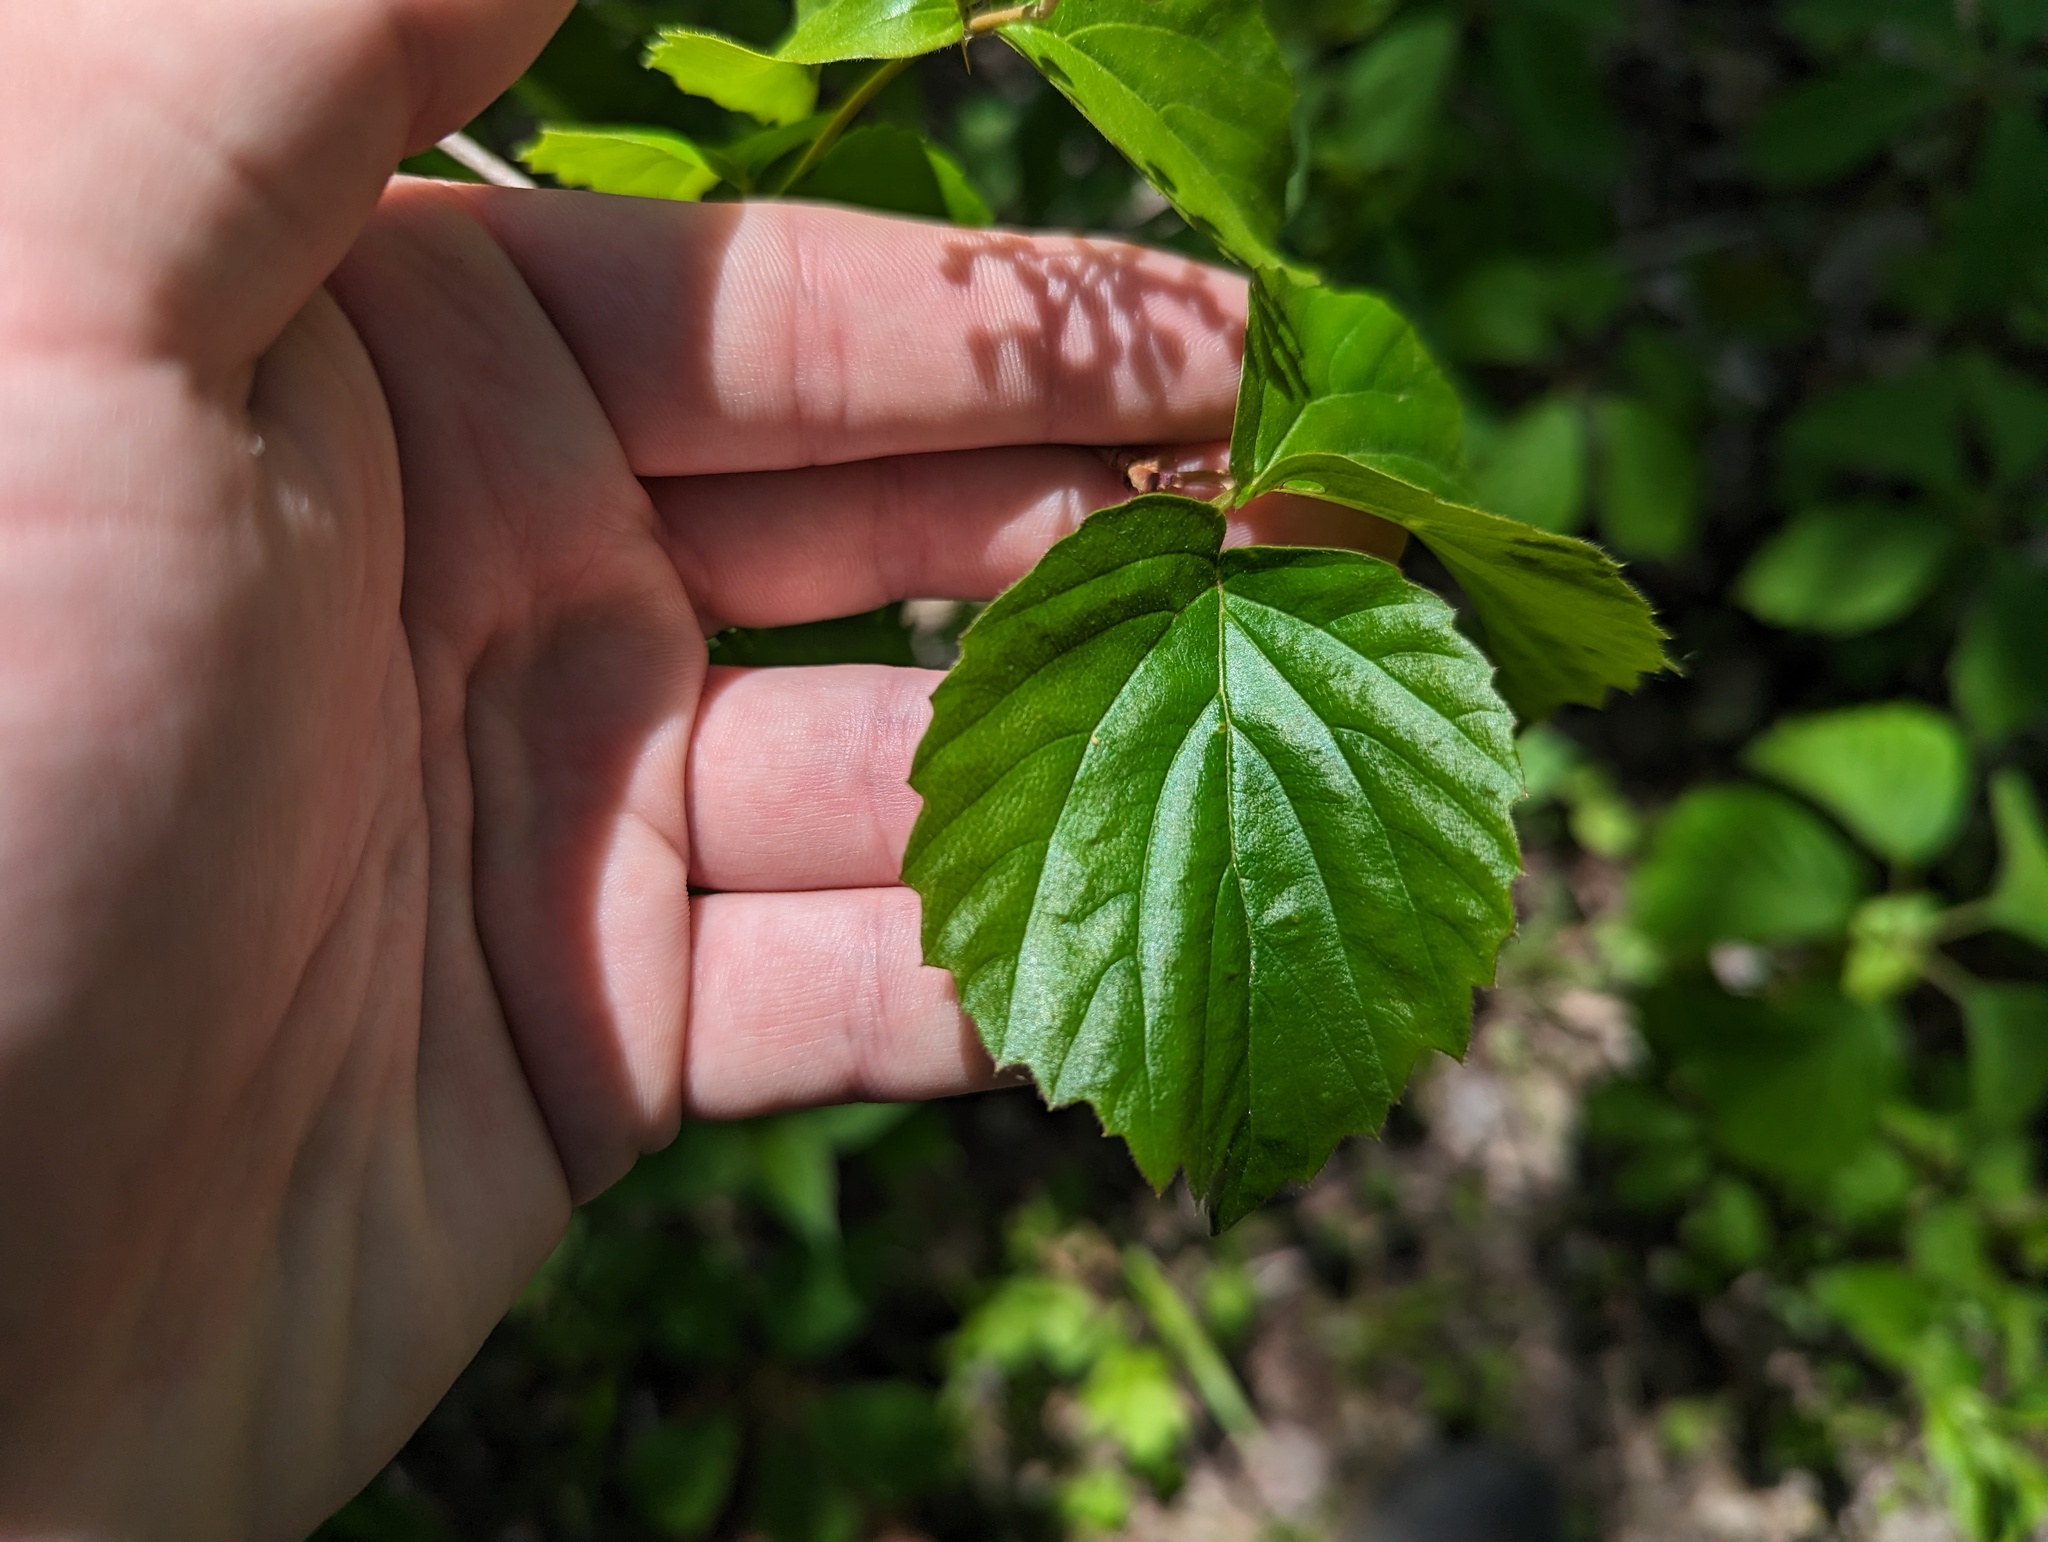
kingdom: Plantae
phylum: Tracheophyta
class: Magnoliopsida
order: Dipsacales
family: Viburnaceae
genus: Viburnum
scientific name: Viburnum rafinesqueanum
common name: Downy arrow-wood
